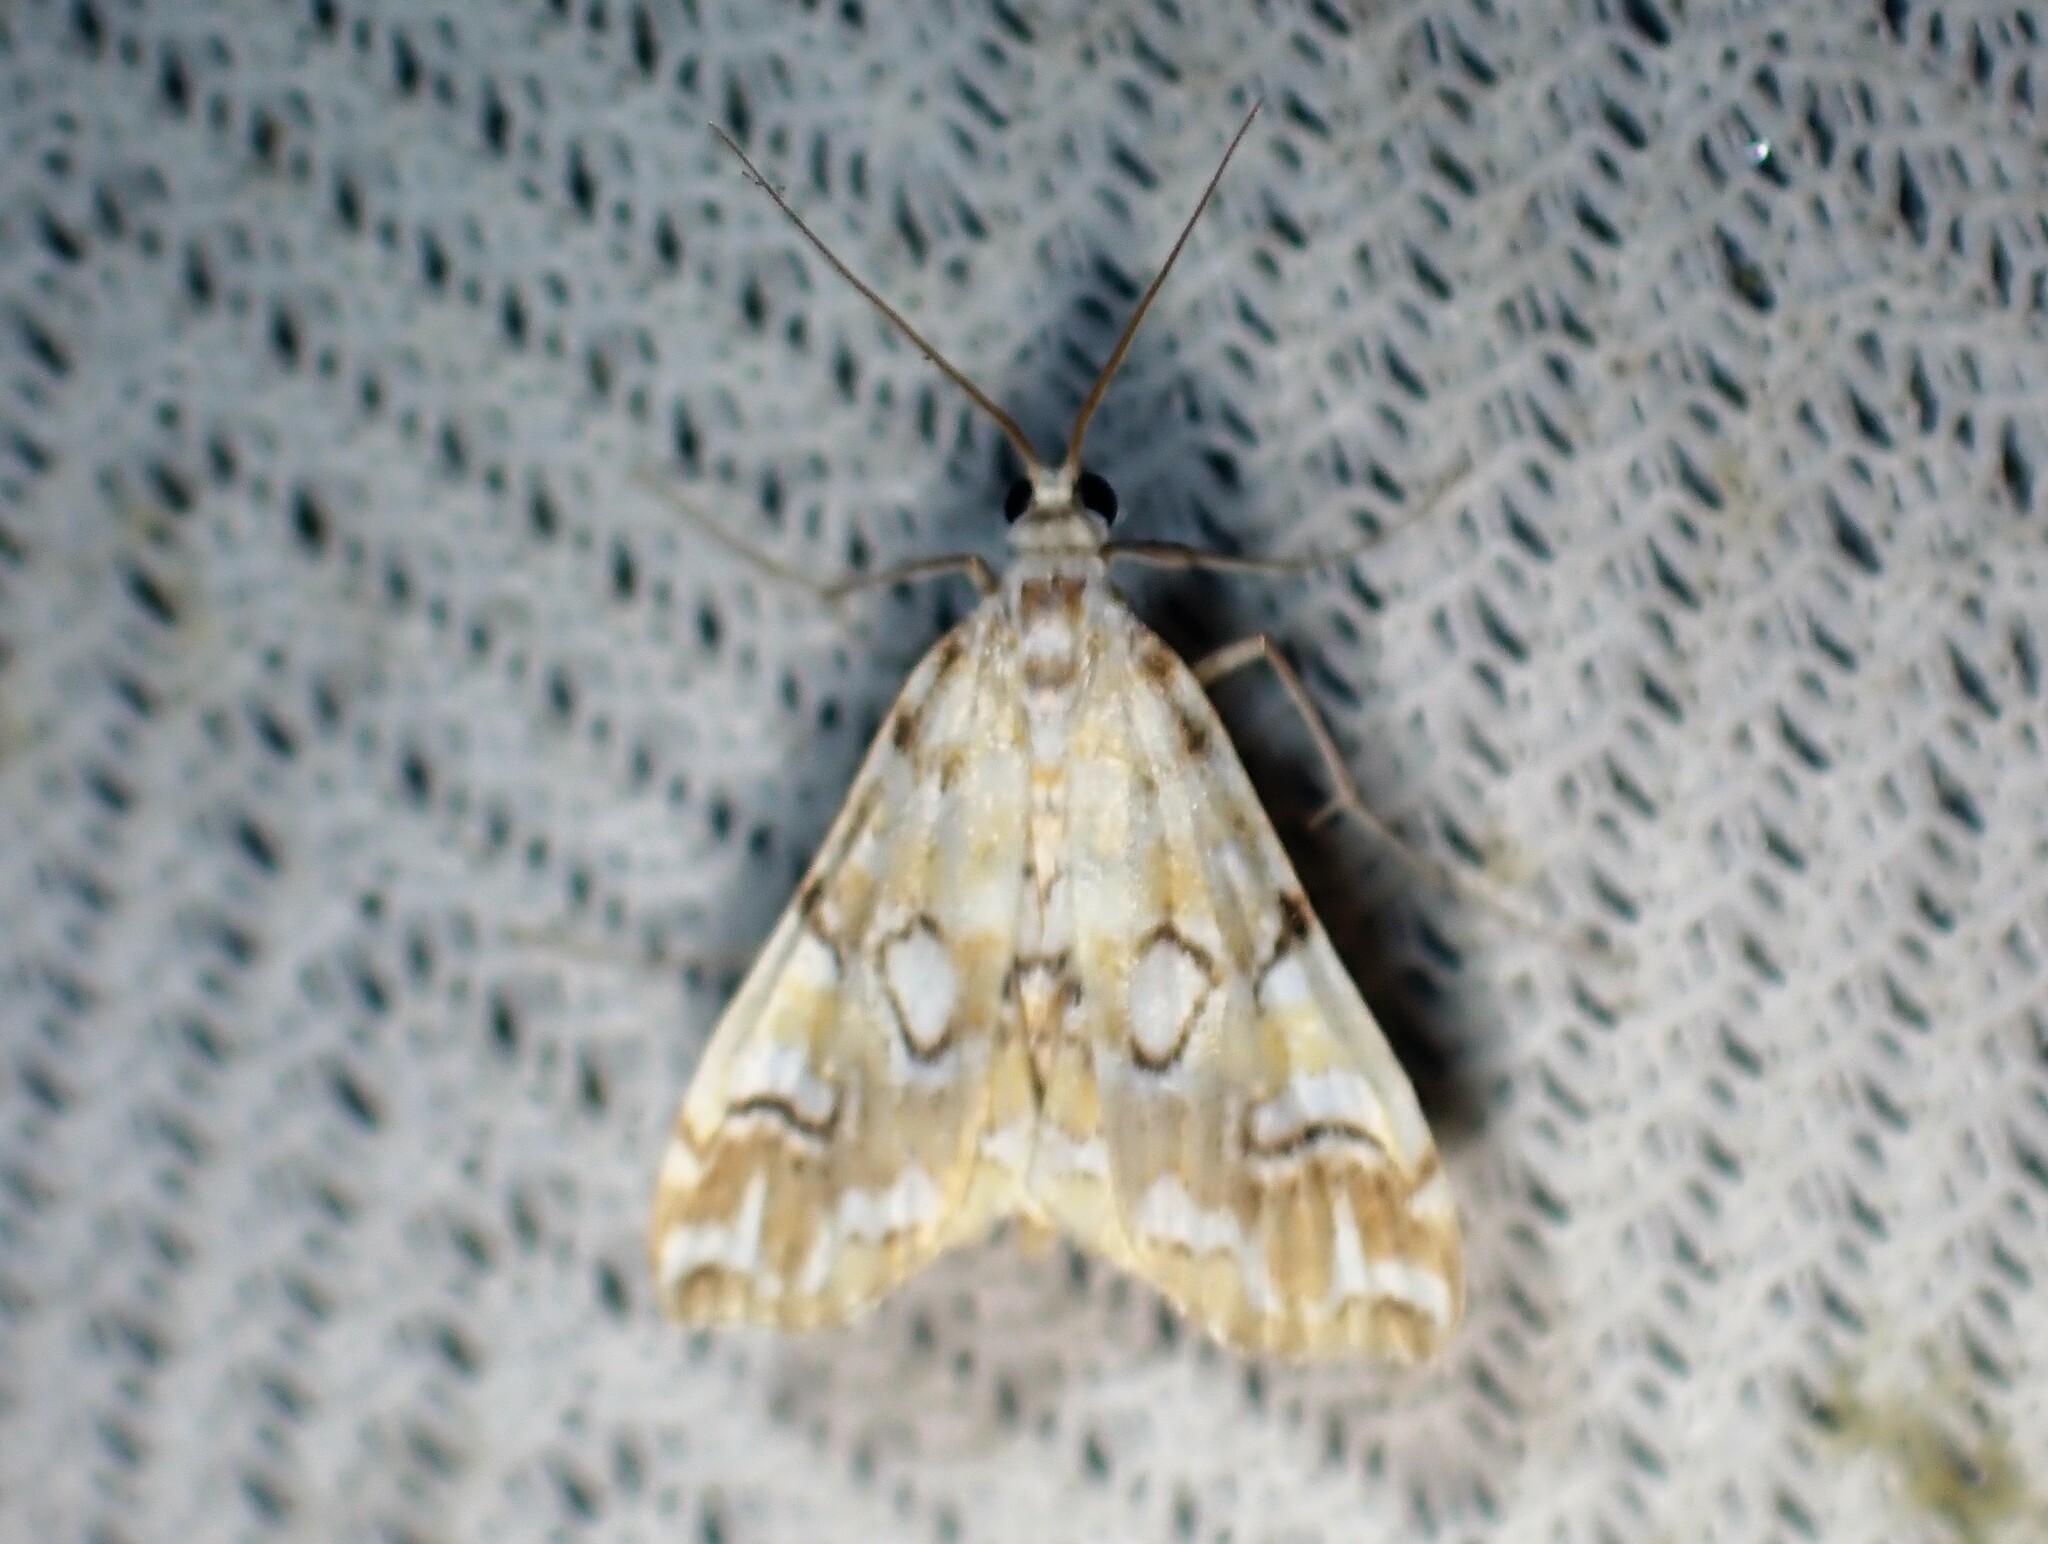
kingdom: Animalia
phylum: Arthropoda
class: Insecta
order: Lepidoptera
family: Crambidae
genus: Elophila
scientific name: Elophila icciusalis
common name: Pondside pyralid moth
